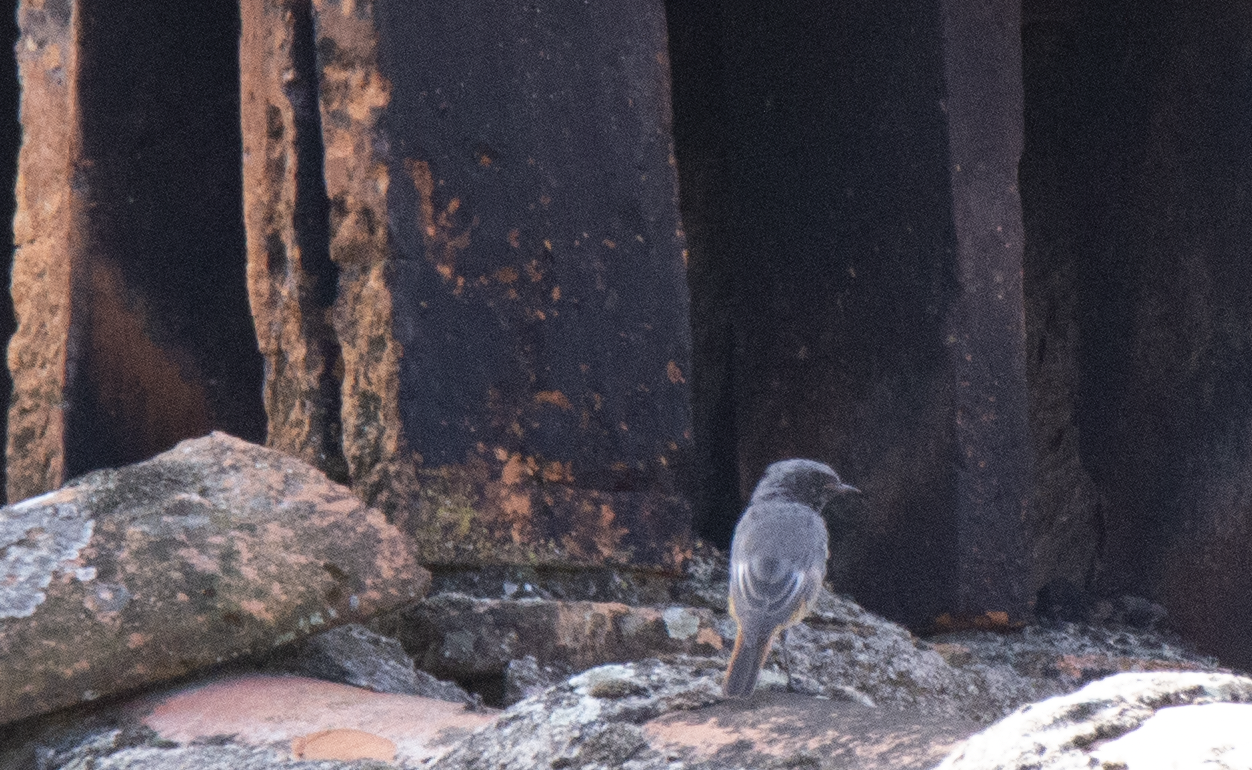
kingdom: Animalia
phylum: Chordata
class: Aves
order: Passeriformes
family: Muscicapidae
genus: Phoenicurus
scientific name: Phoenicurus ochruros
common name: Black redstart
